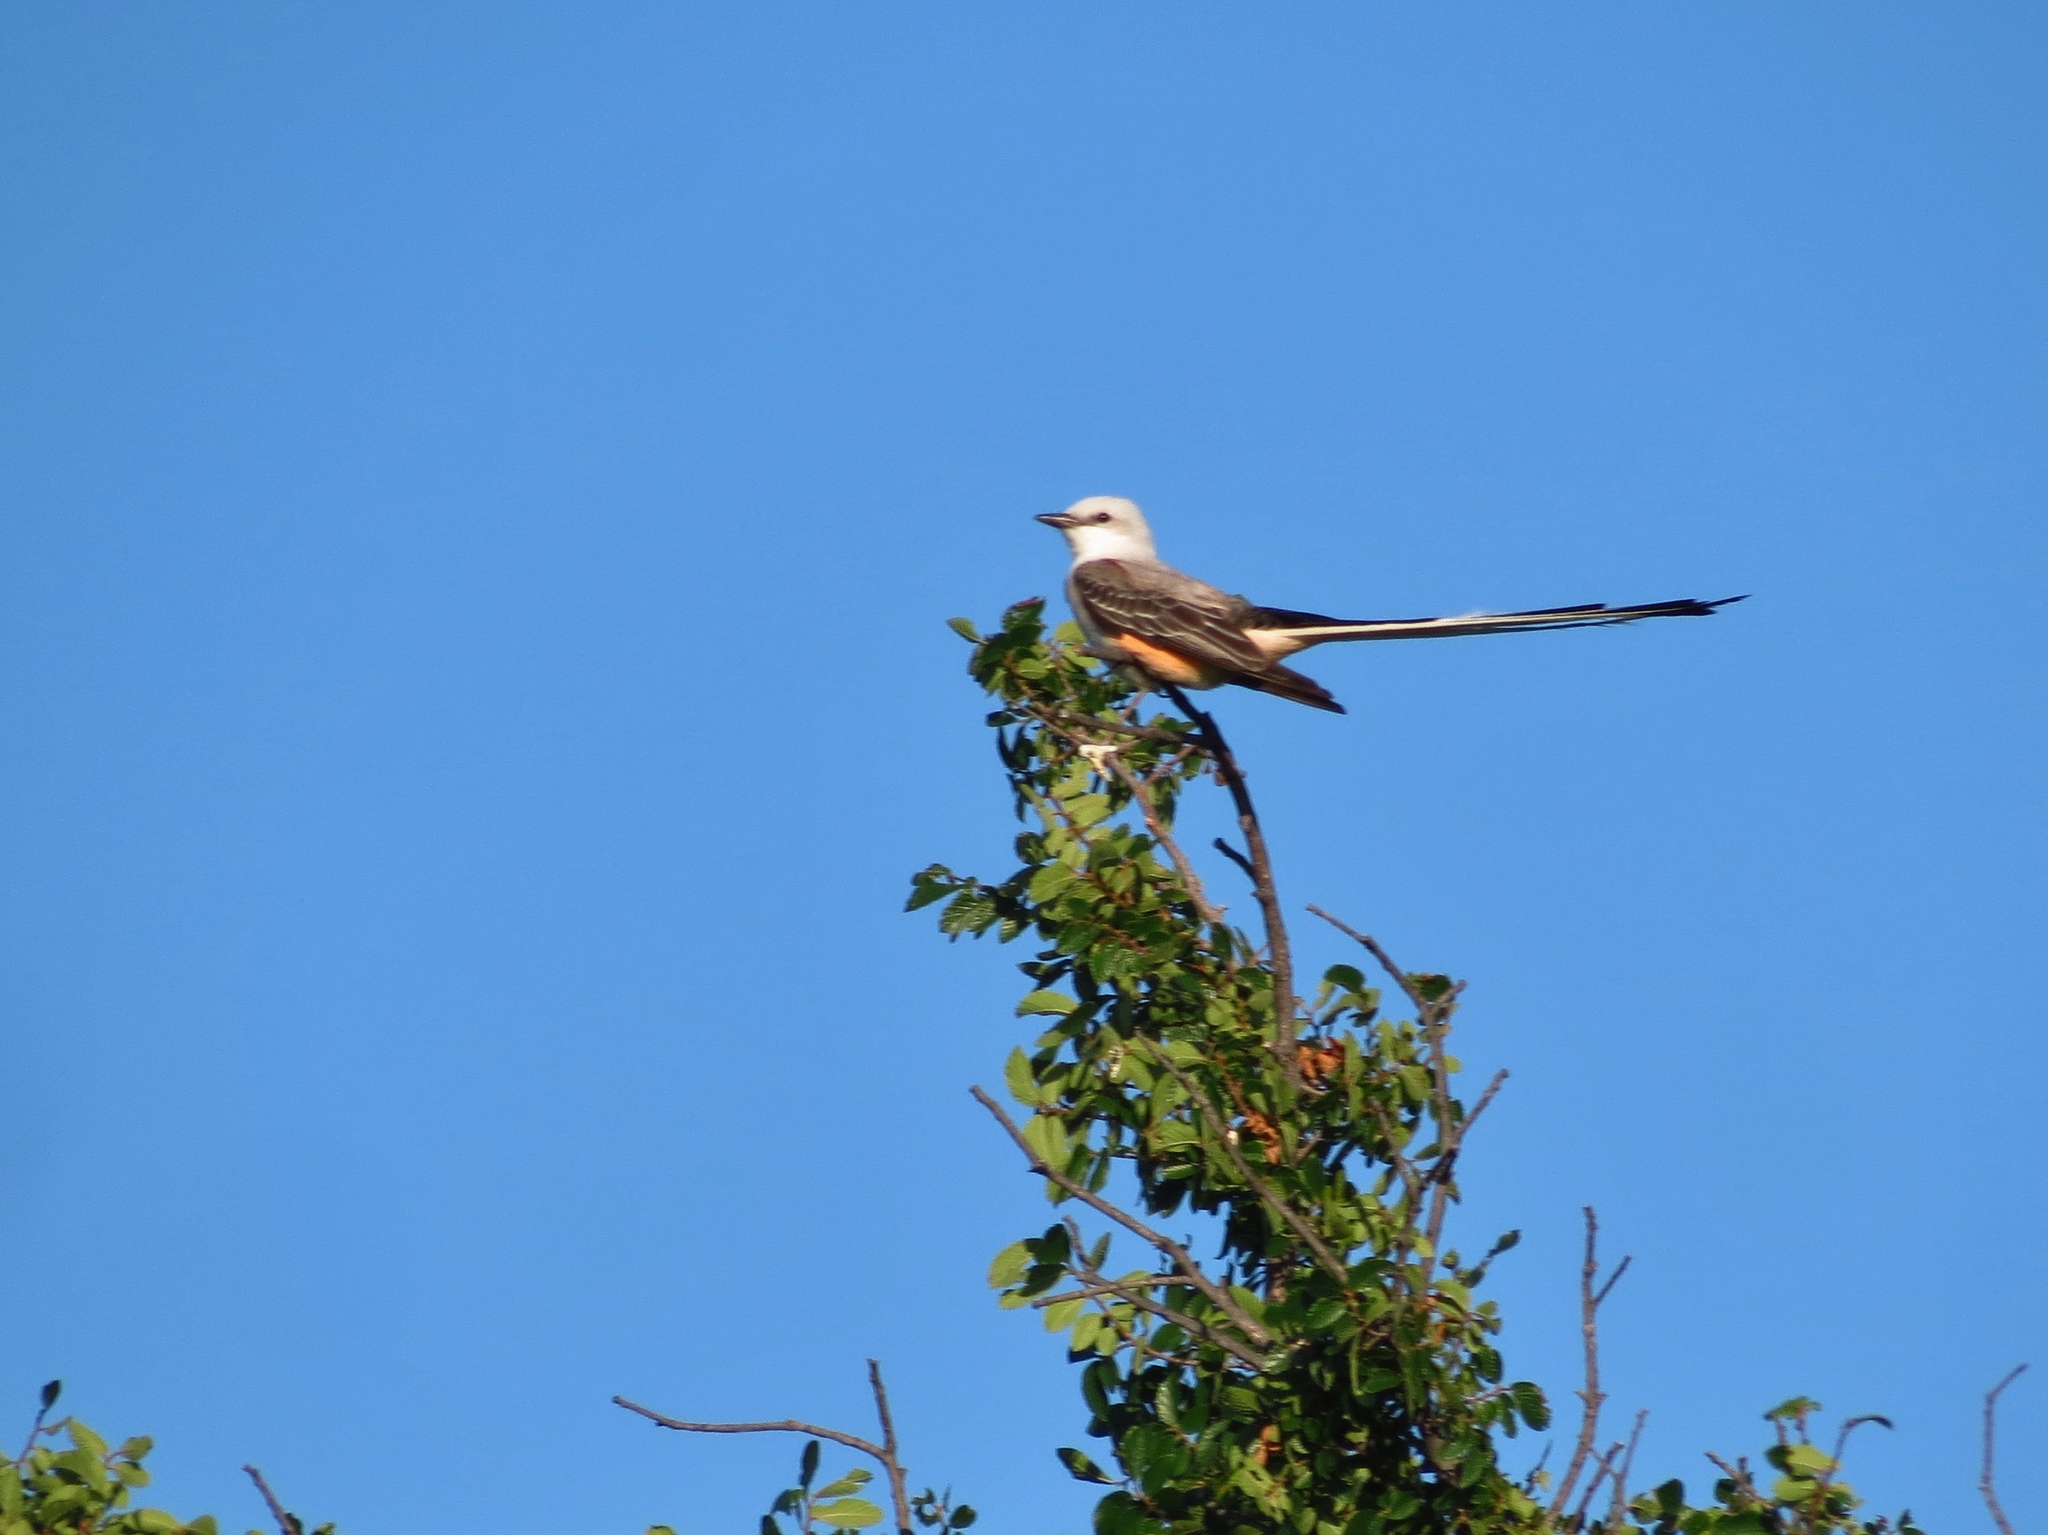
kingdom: Animalia
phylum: Chordata
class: Aves
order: Passeriformes
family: Tyrannidae
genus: Tyrannus
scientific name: Tyrannus forficatus
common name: Scissor-tailed flycatcher
